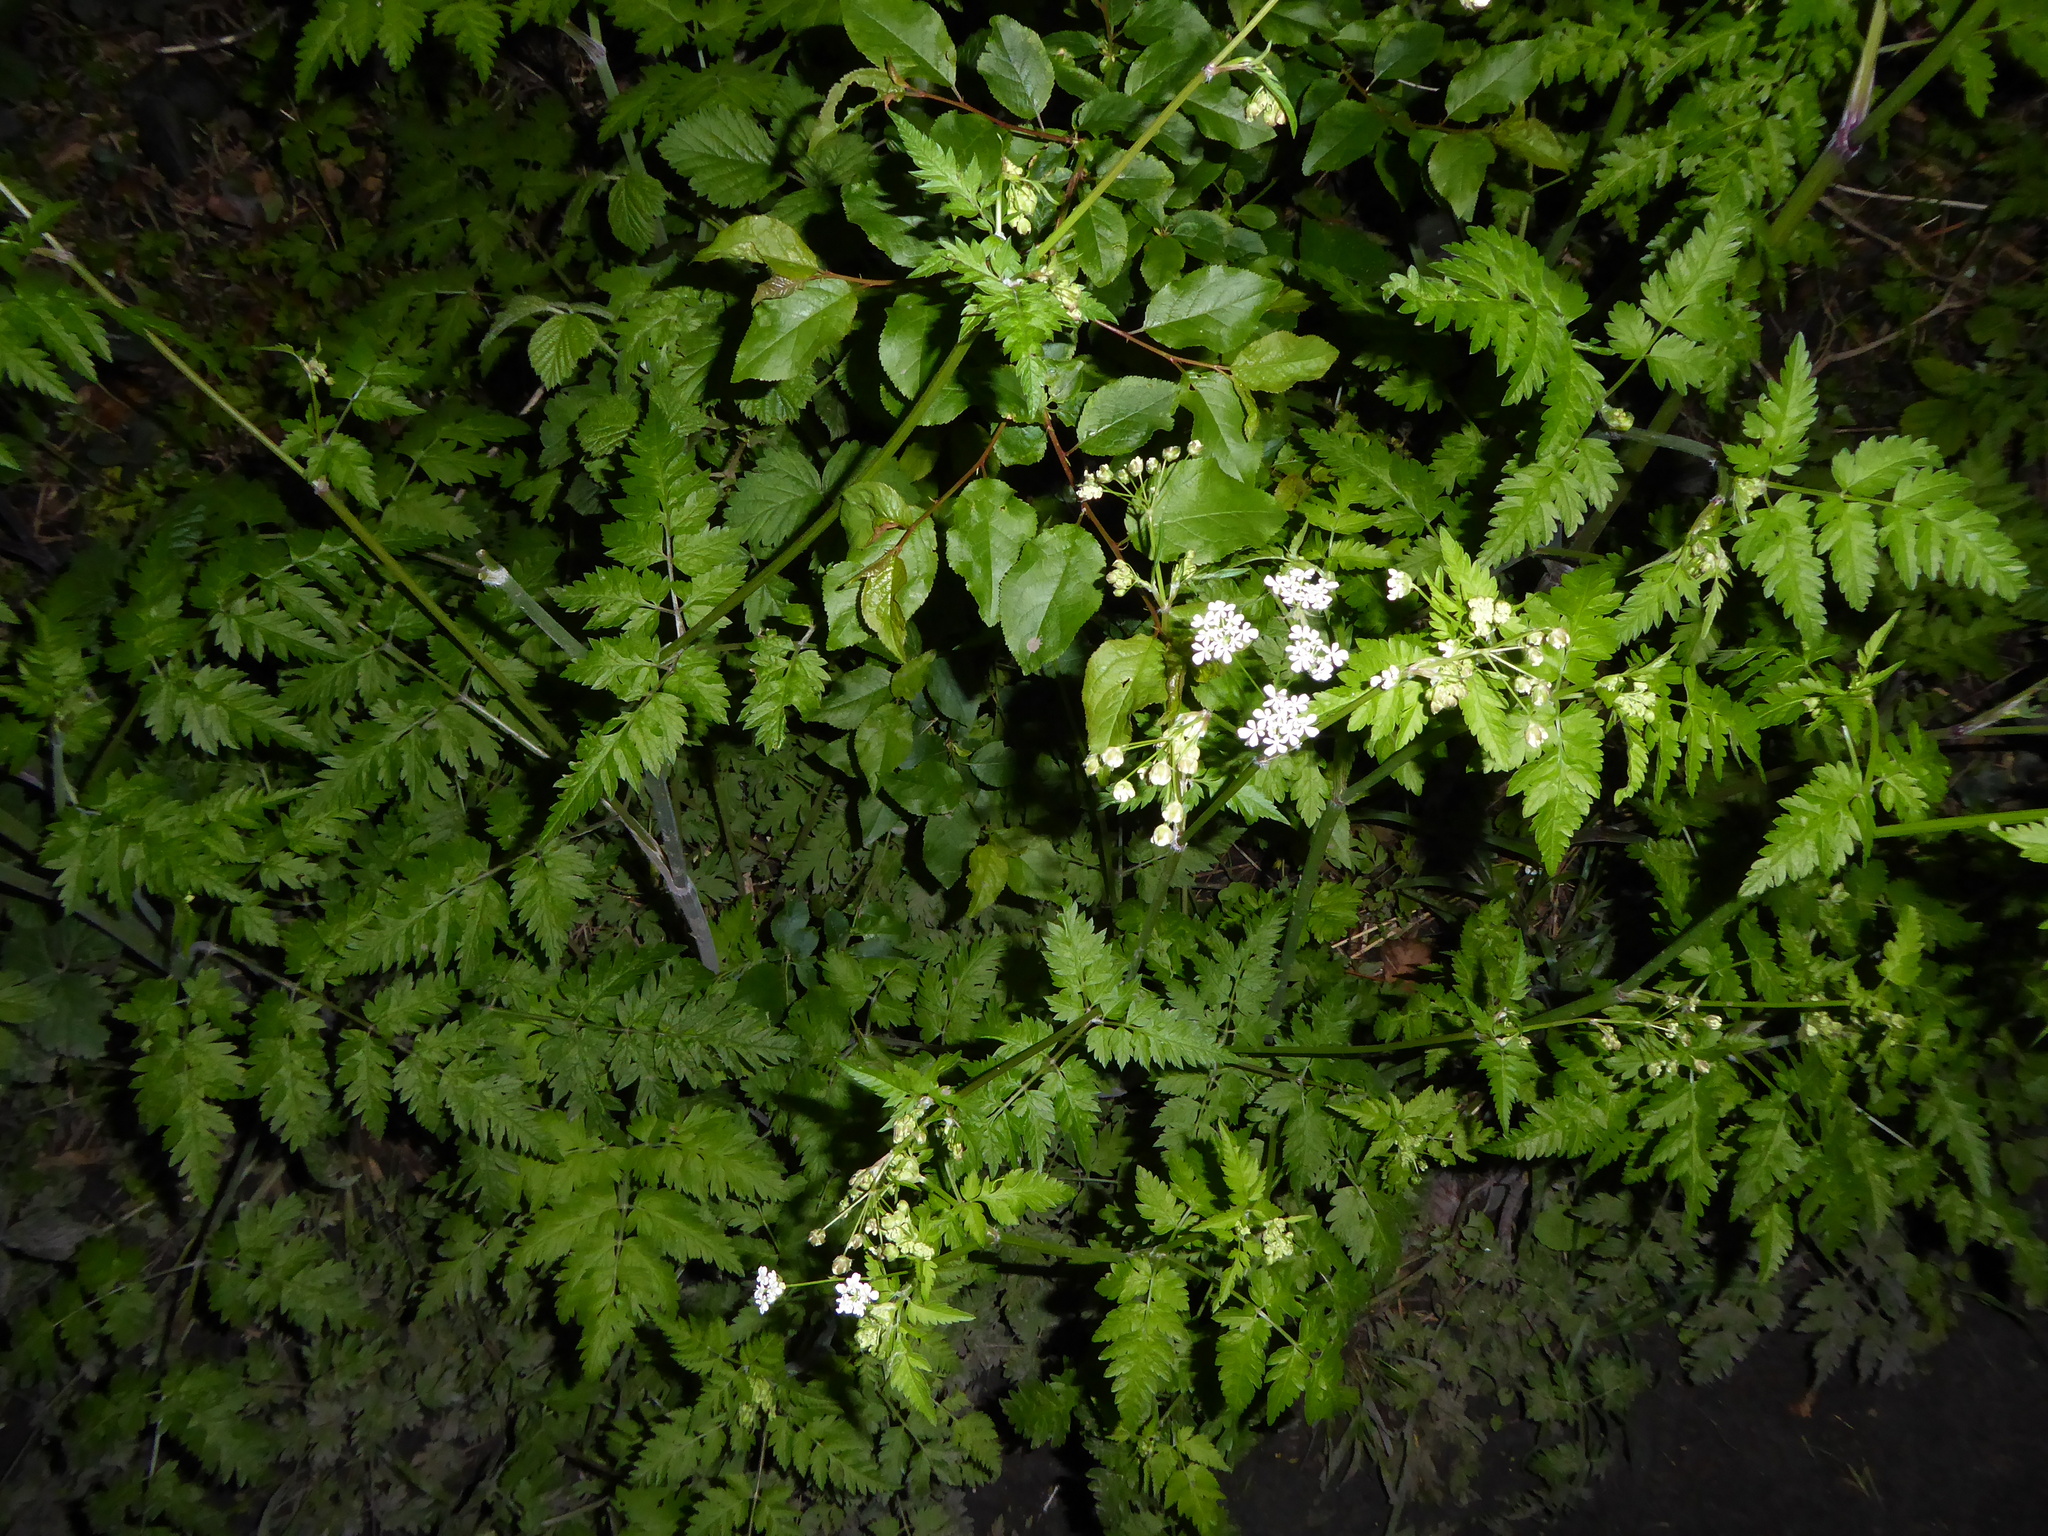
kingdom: Plantae
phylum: Tracheophyta
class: Magnoliopsida
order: Apiales
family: Apiaceae
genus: Anthriscus
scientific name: Anthriscus sylvestris
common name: Cow parsley
